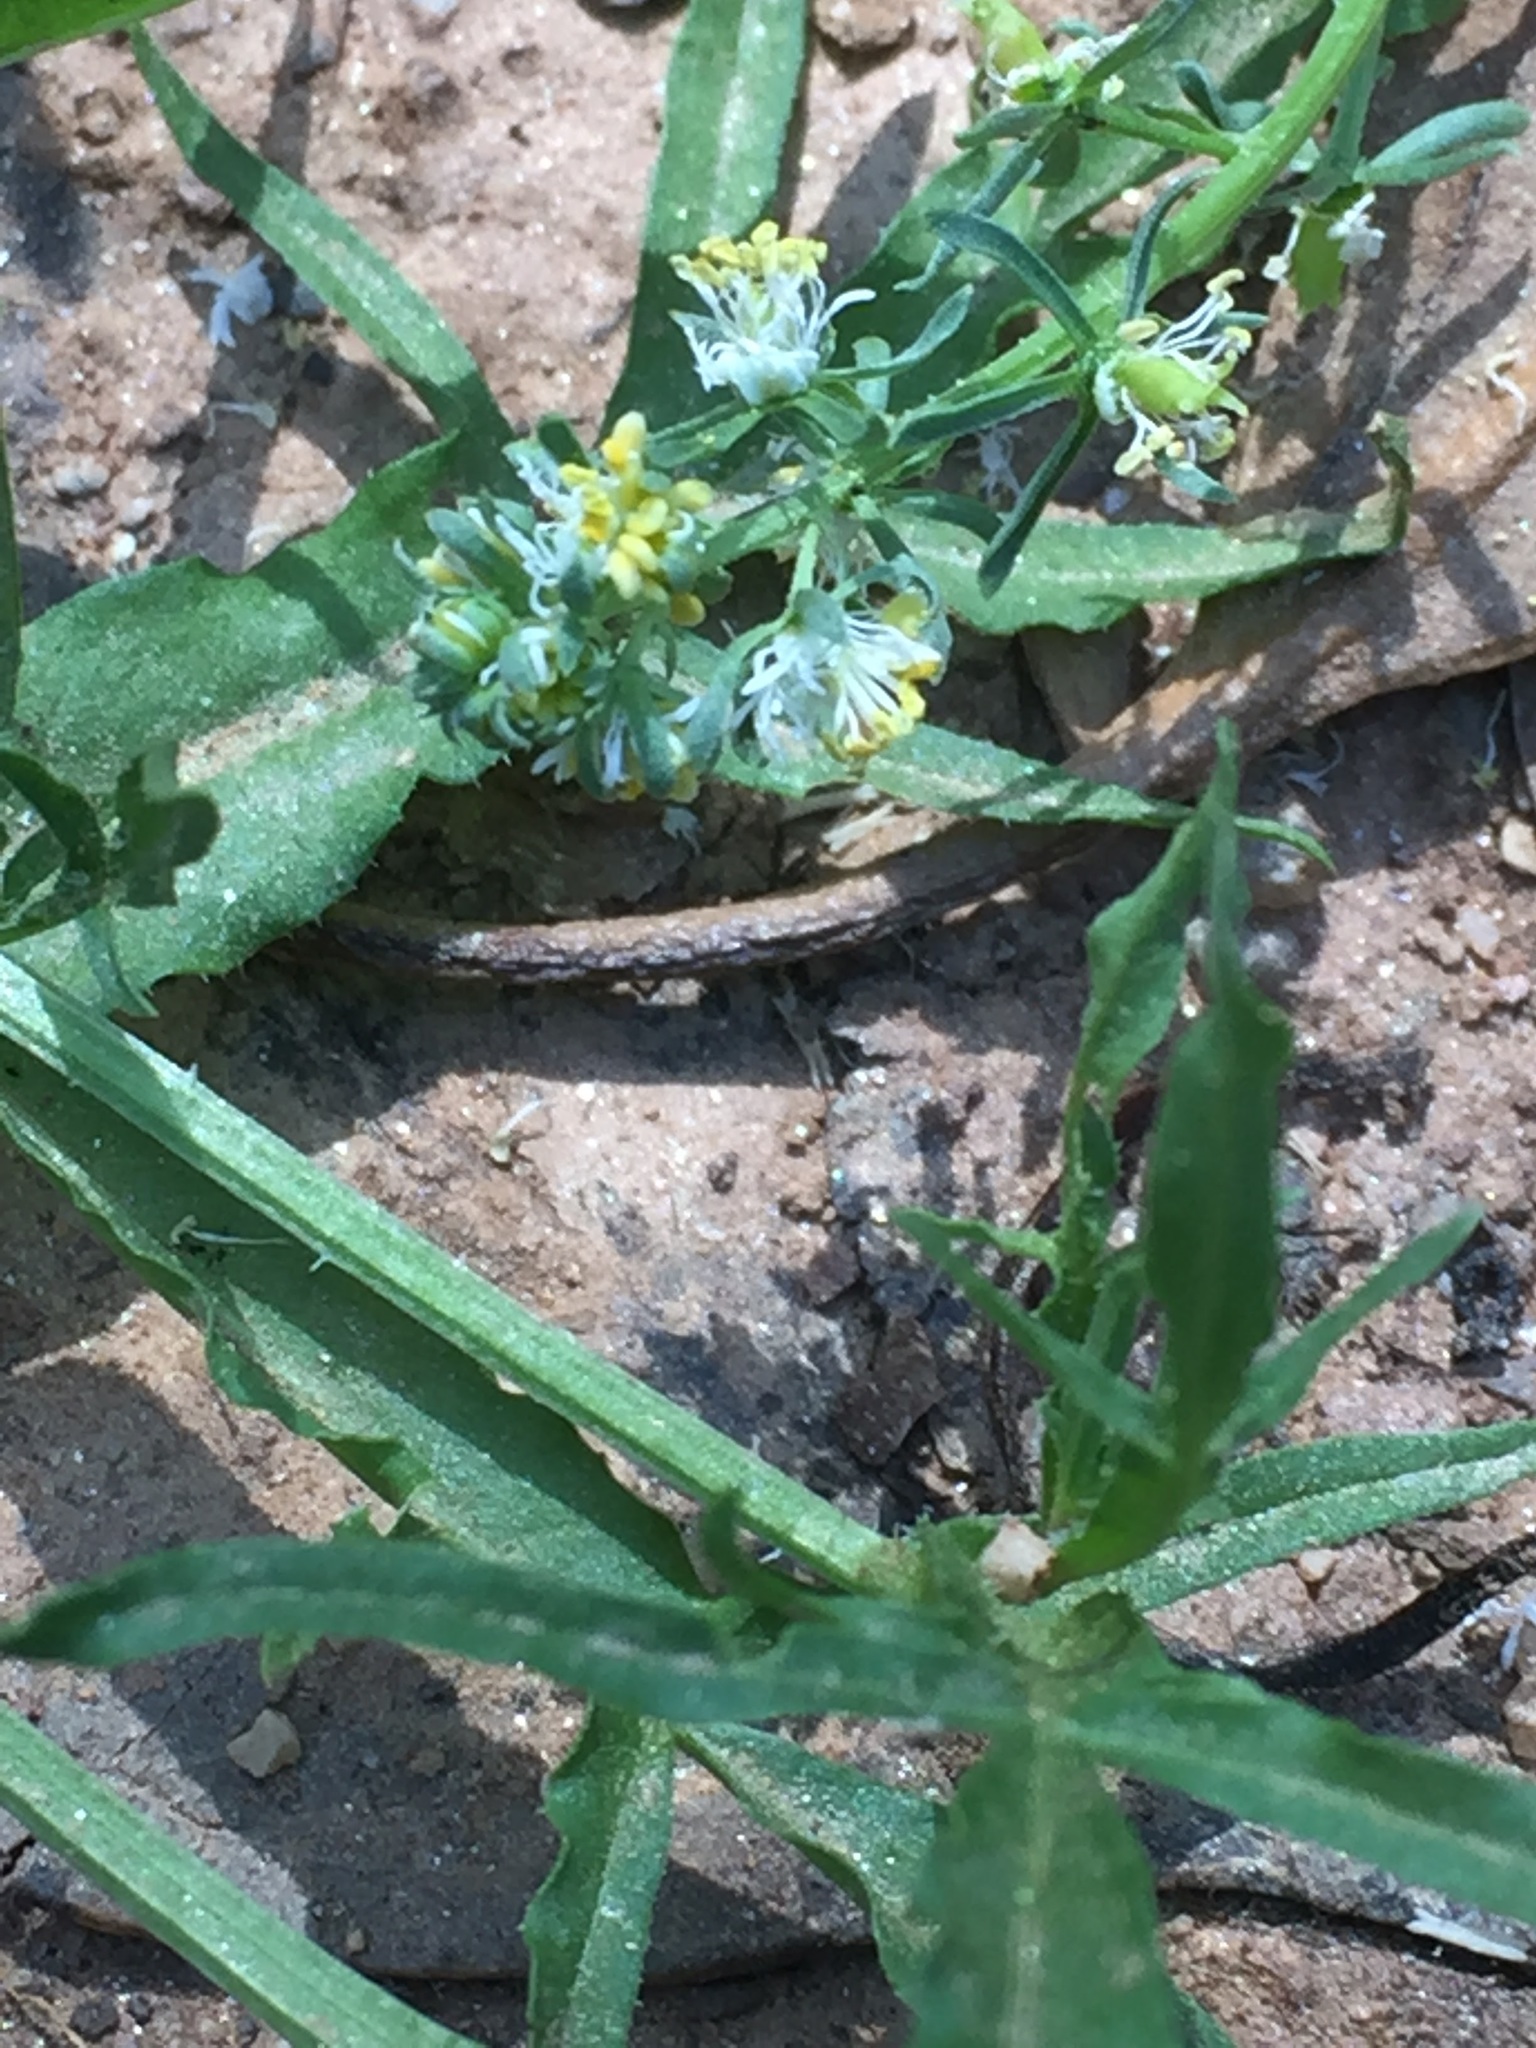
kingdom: Plantae
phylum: Tracheophyta
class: Magnoliopsida
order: Brassicales
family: Resedaceae
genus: Reseda
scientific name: Reseda phyteuma
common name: Corn mignonette
